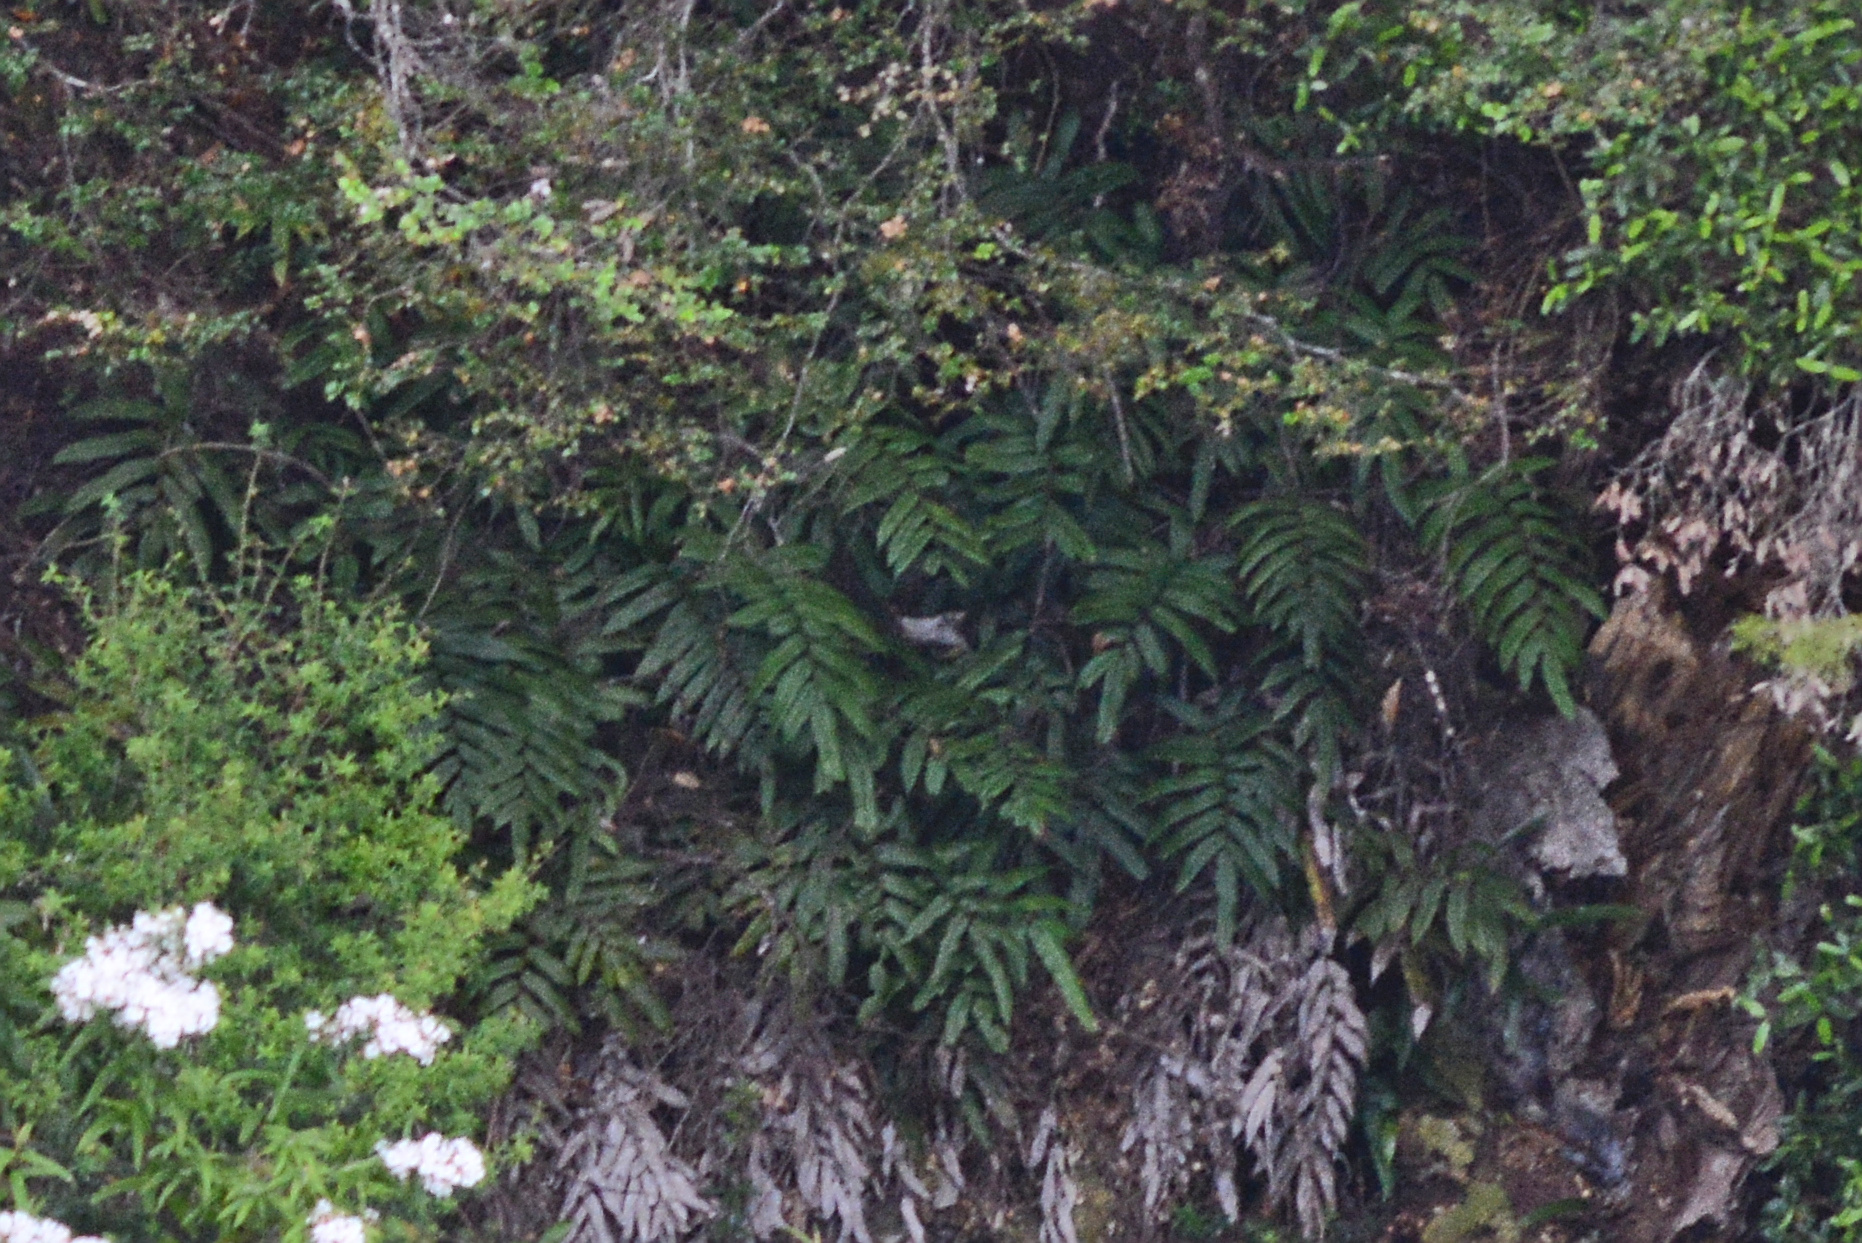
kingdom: Plantae
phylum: Tracheophyta
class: Polypodiopsida
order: Polypodiales
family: Blechnaceae
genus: Parablechnum
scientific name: Parablechnum wattsii
